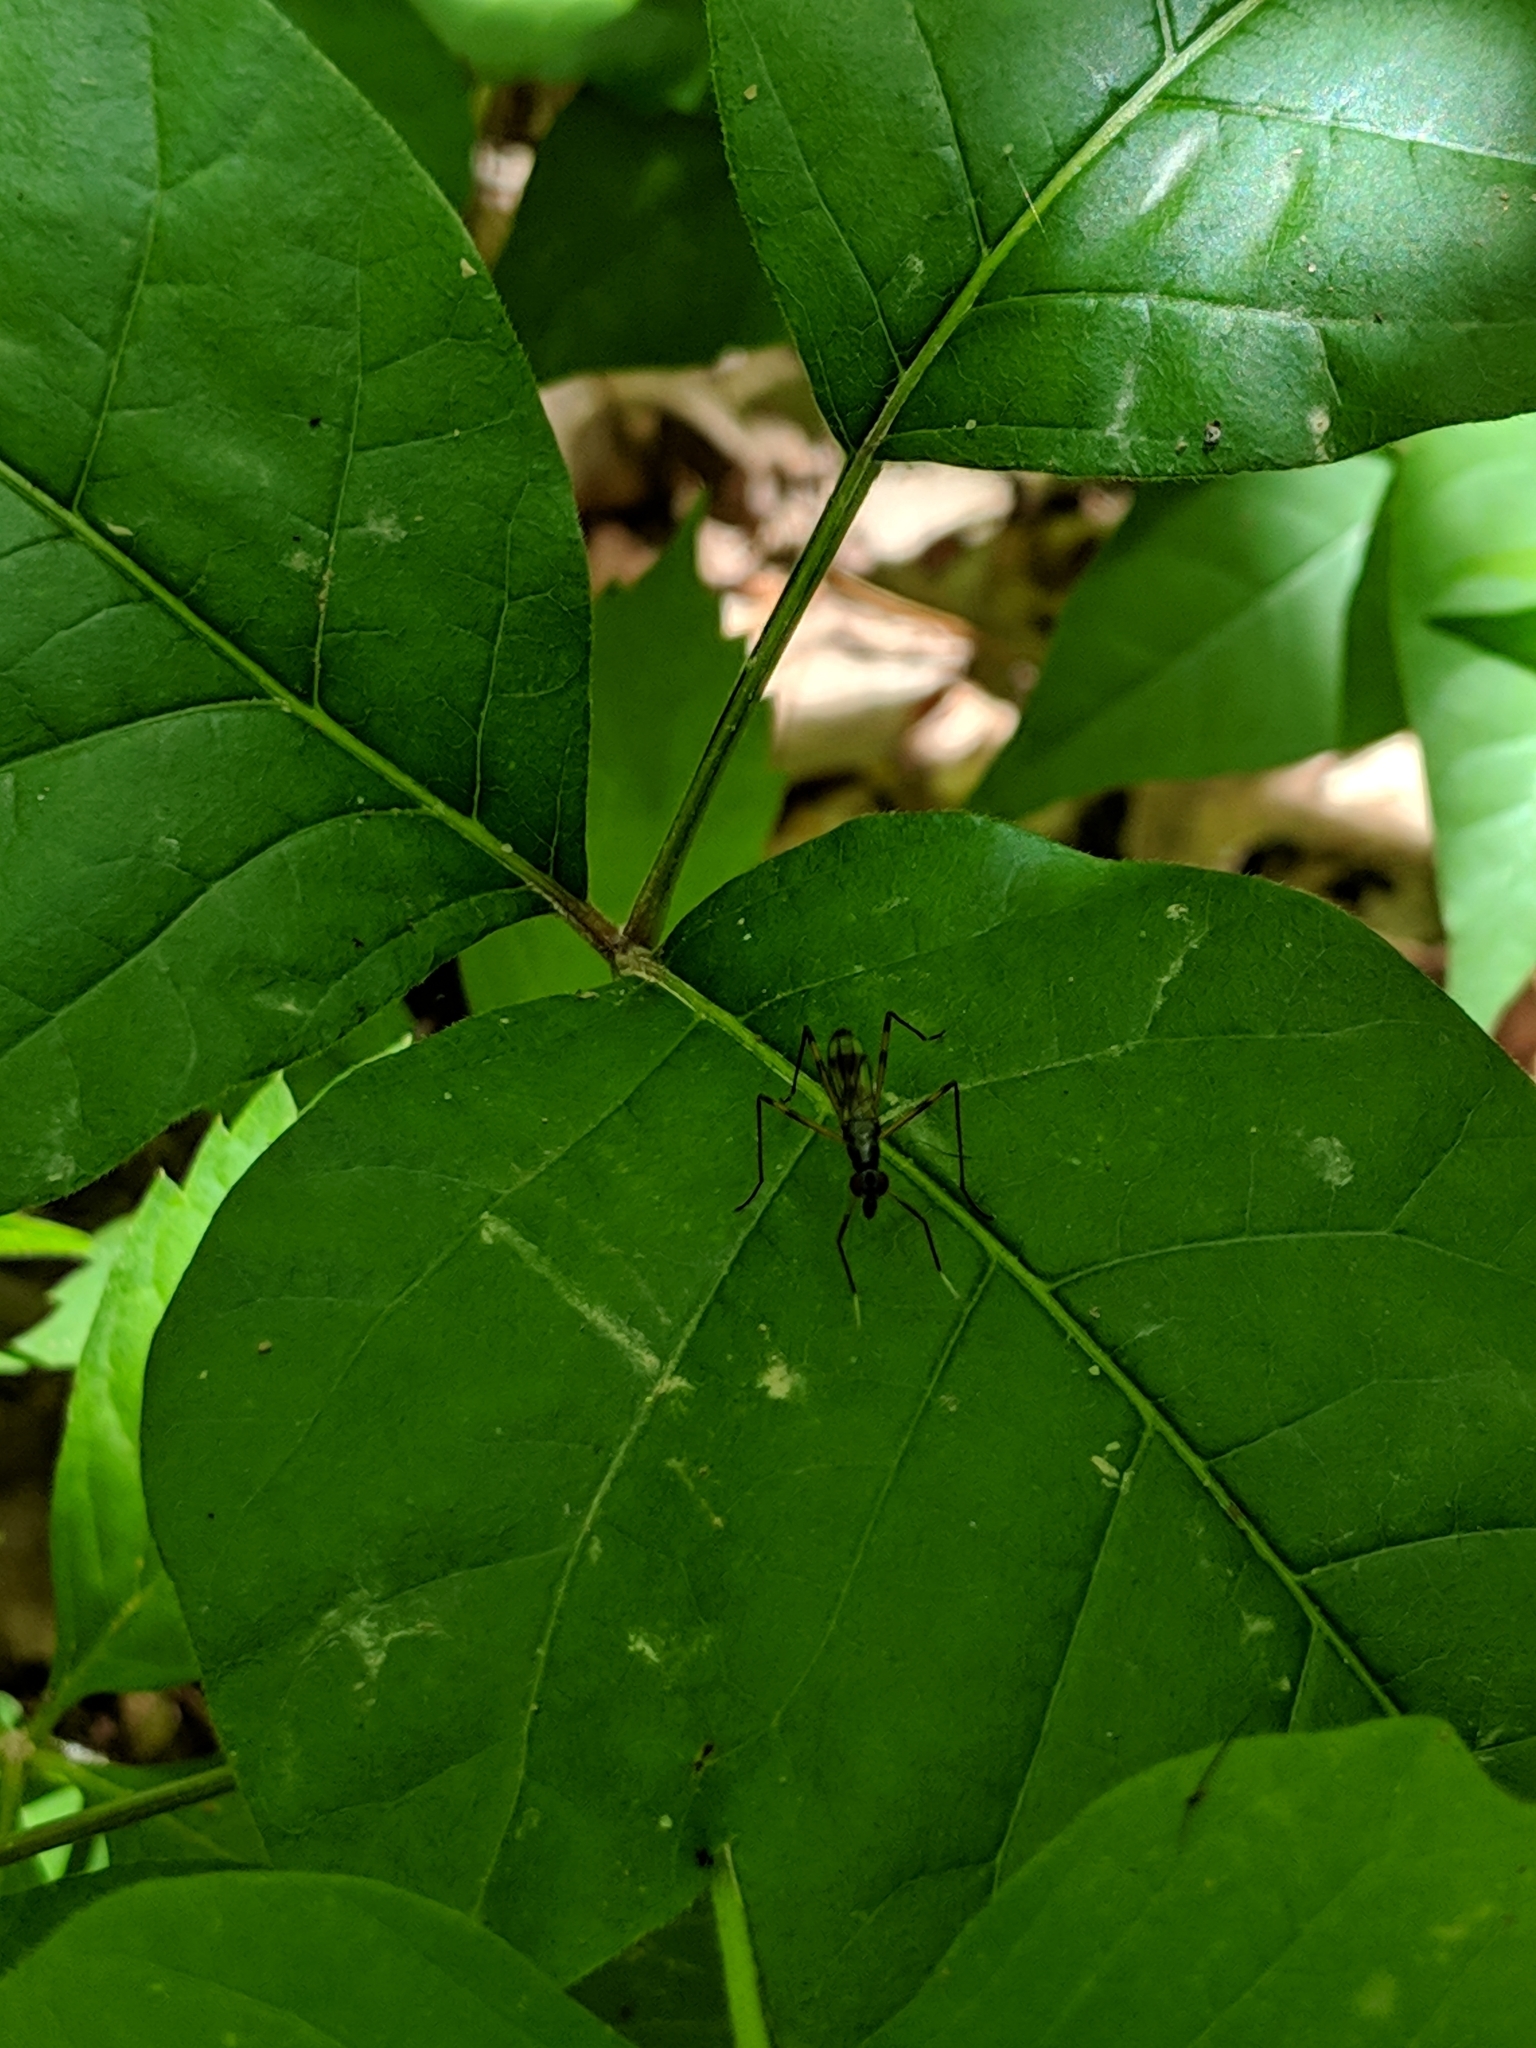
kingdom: Animalia
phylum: Arthropoda
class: Insecta
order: Diptera
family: Micropezidae
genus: Rainieria
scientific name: Rainieria antennaepes
